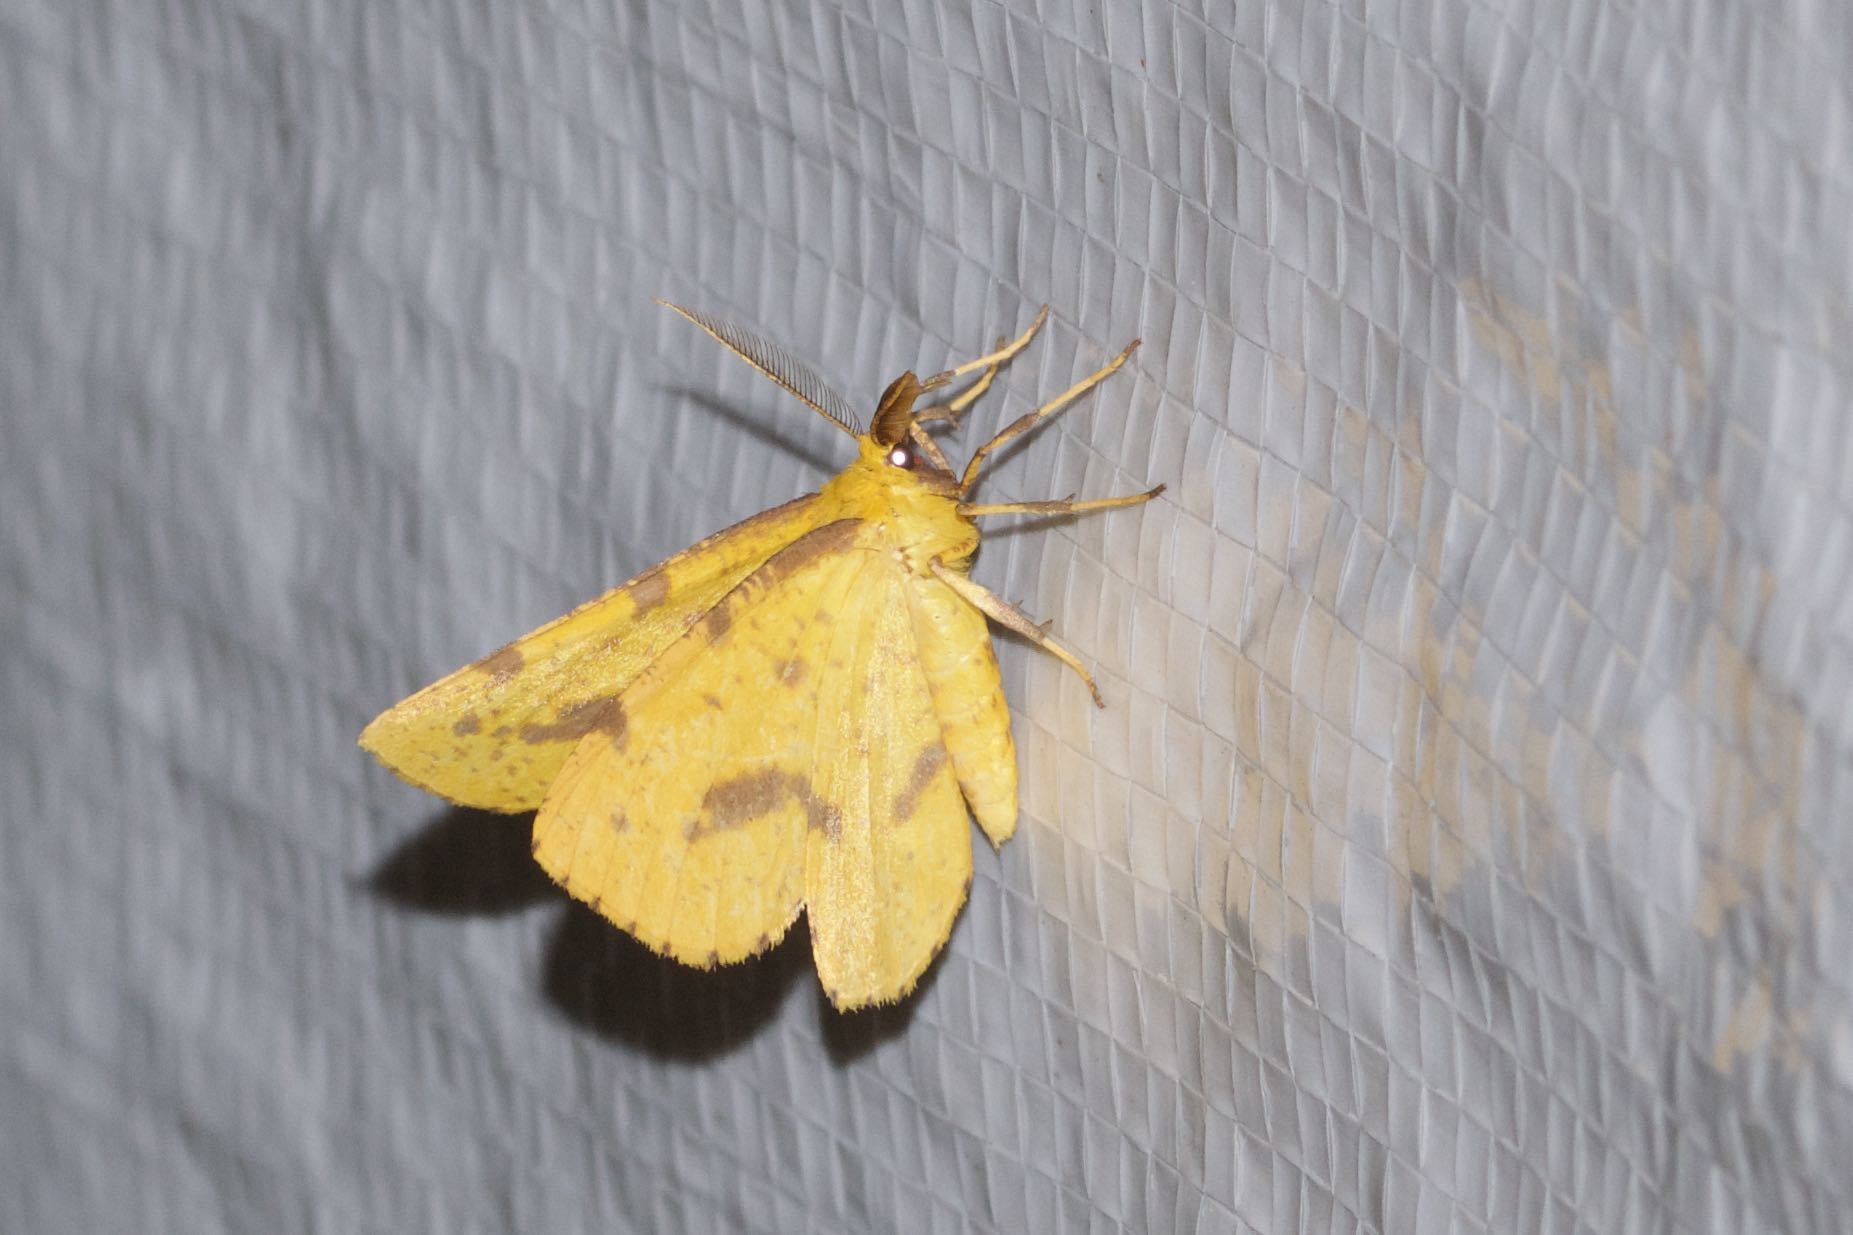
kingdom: Animalia
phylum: Arthropoda
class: Insecta
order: Lepidoptera
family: Geometridae
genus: Xanthotype
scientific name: Xanthotype
